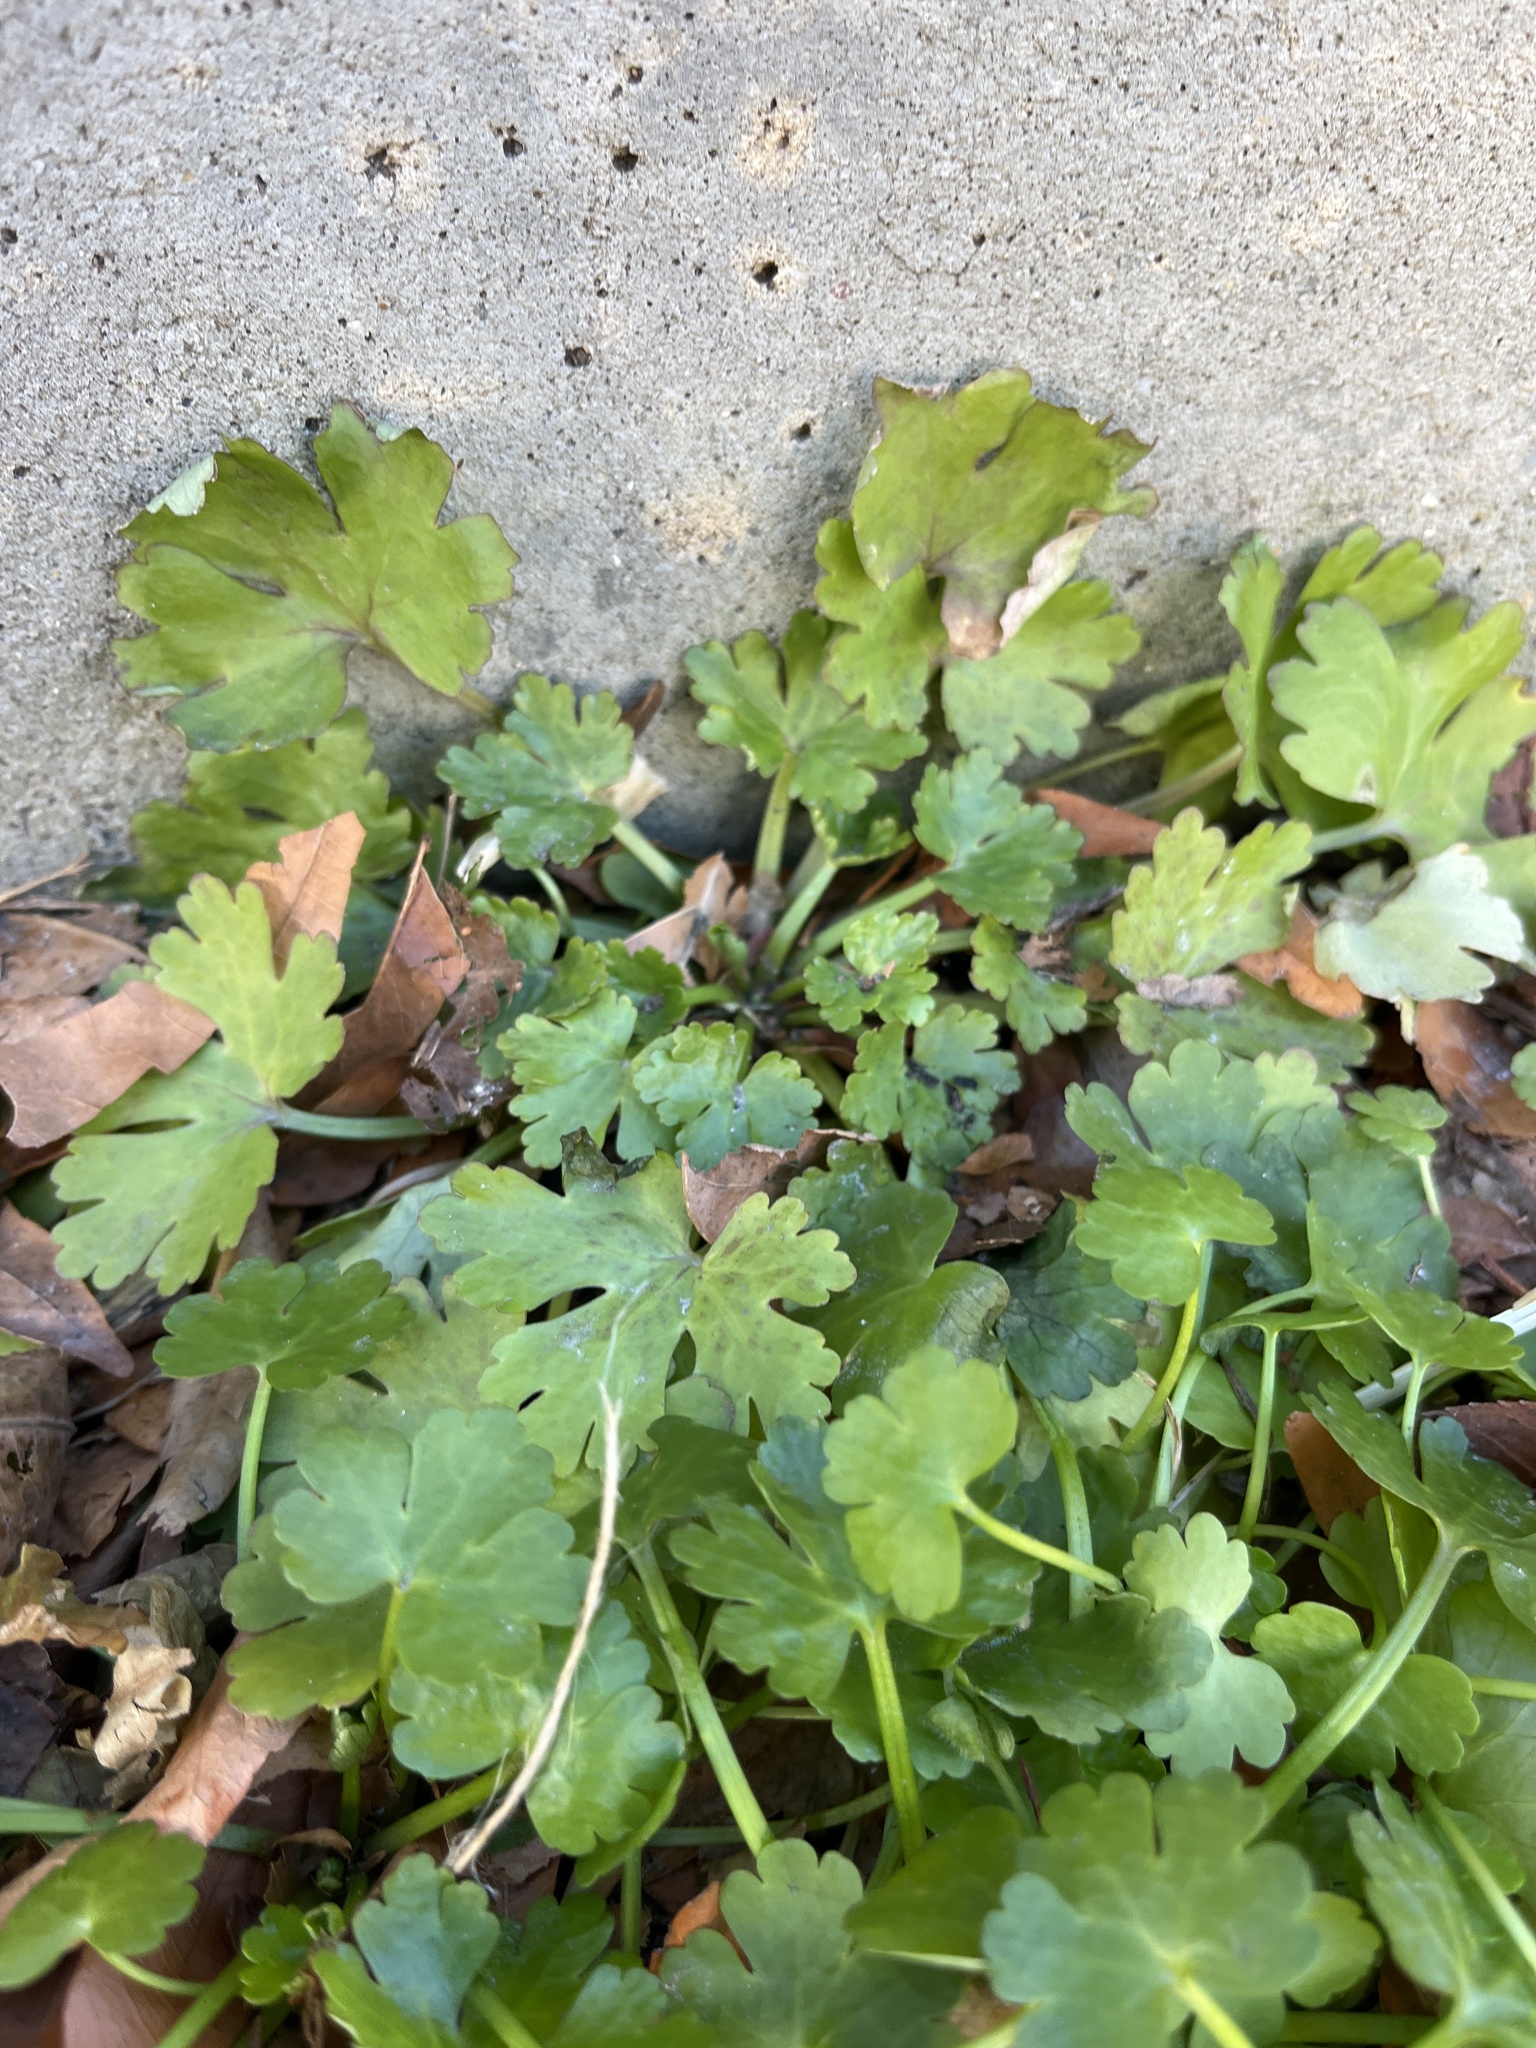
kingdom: Plantae
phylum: Tracheophyta
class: Magnoliopsida
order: Ranunculales
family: Ranunculaceae
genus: Ranunculus
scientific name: Ranunculus sceleratus
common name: Celery-leaved buttercup
